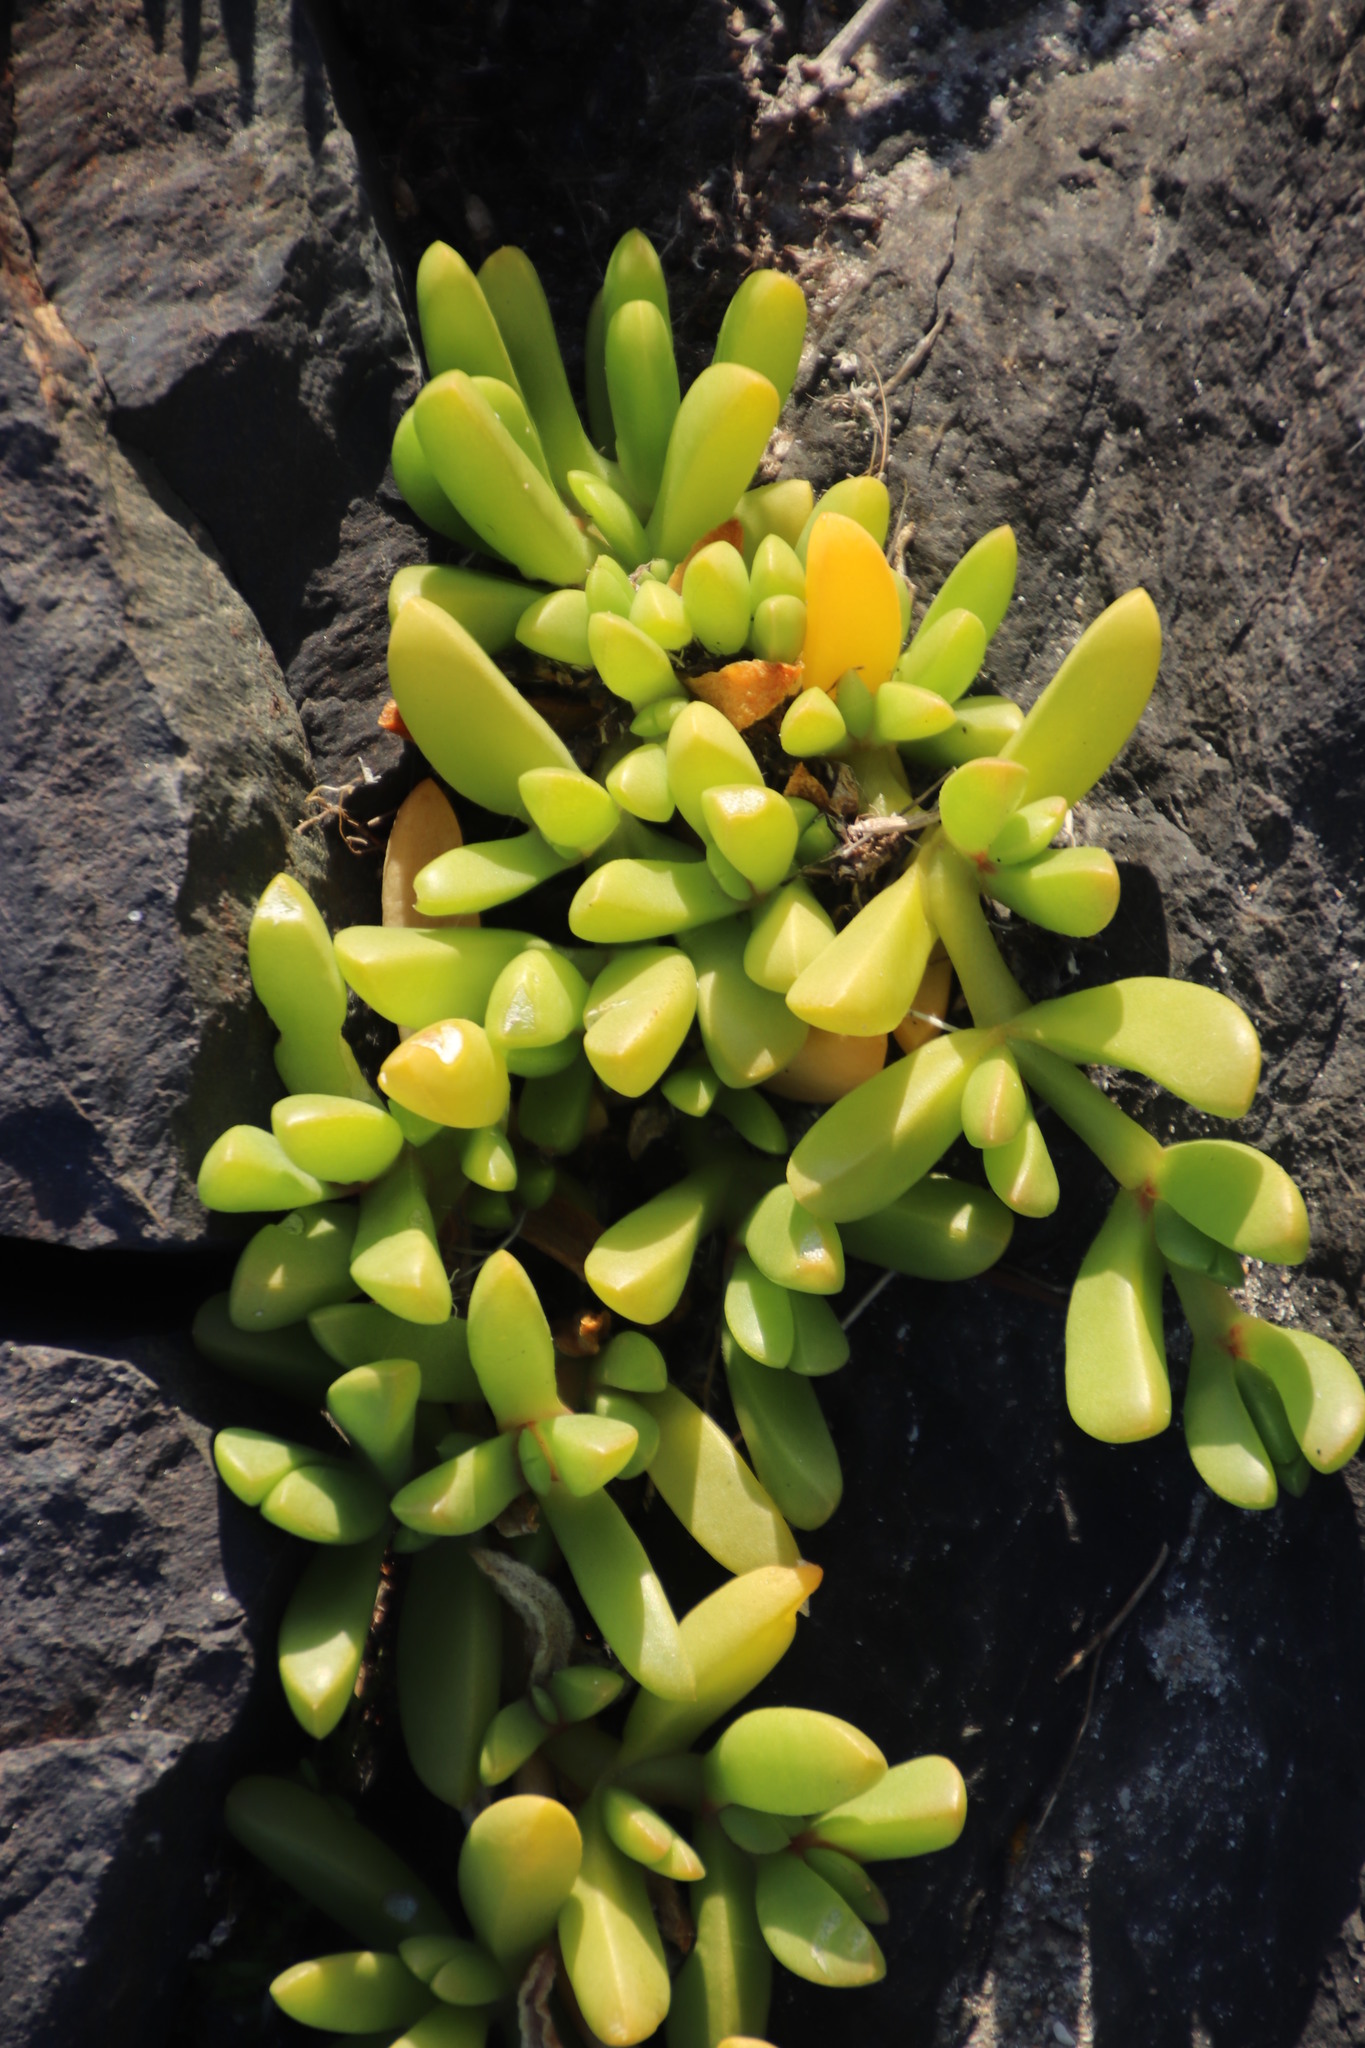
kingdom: Plantae
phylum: Tracheophyta
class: Magnoliopsida
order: Caryophyllales
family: Aizoaceae
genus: Disphyma
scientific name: Disphyma crassifolium
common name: Purple dewplant
